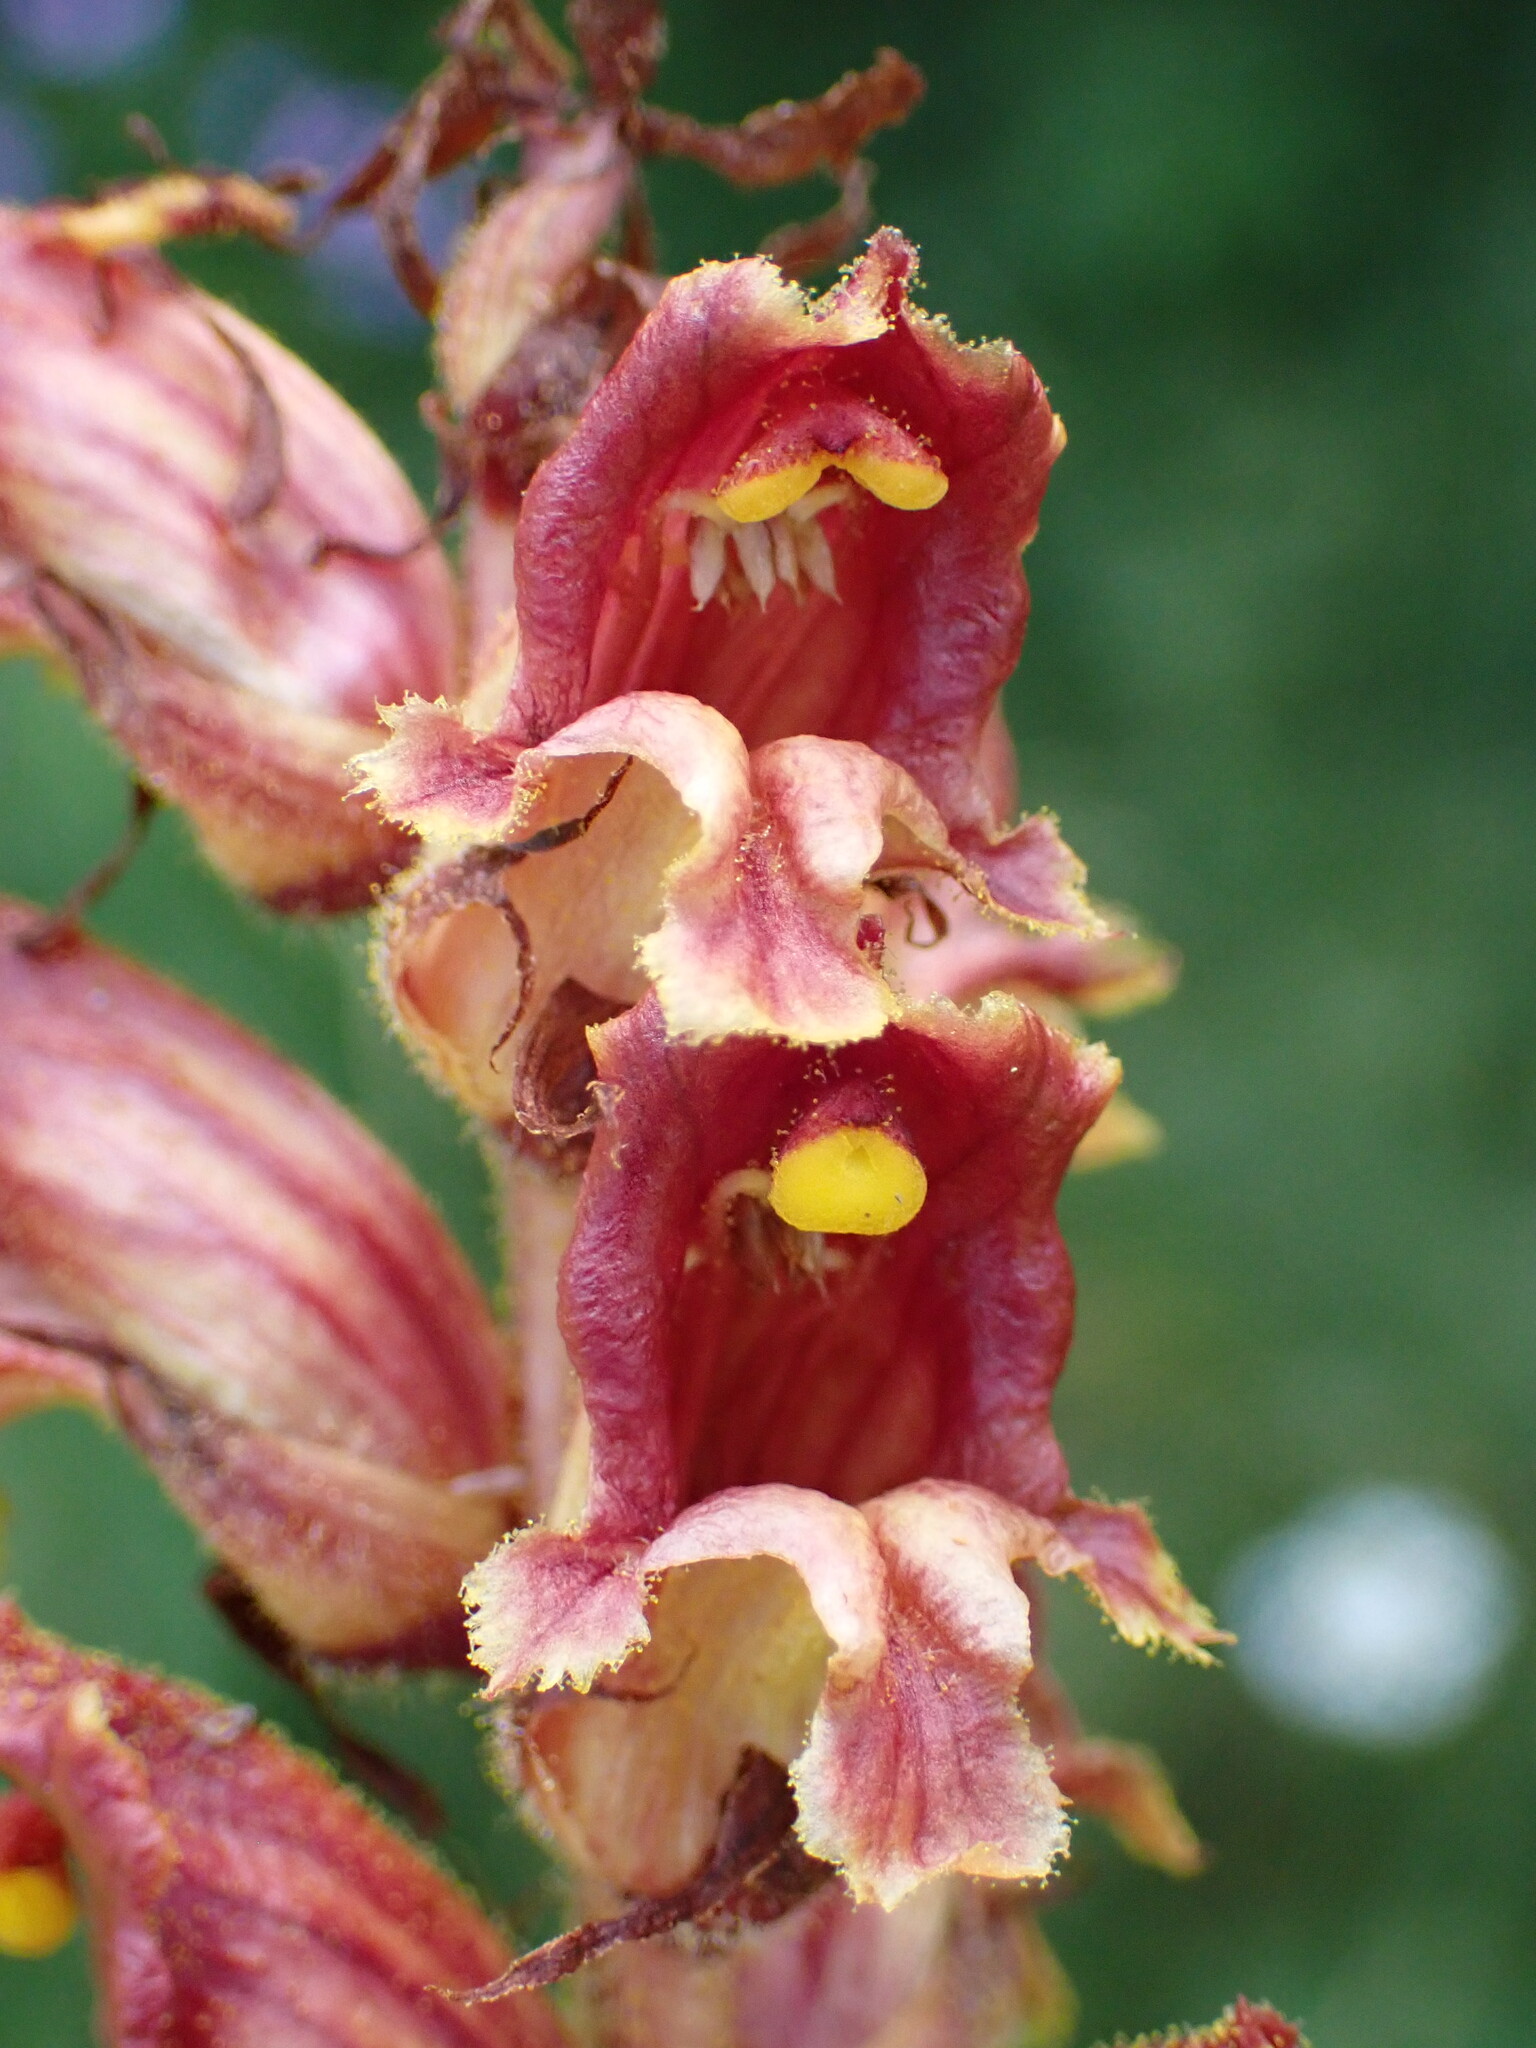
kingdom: Plantae
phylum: Tracheophyta
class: Magnoliopsida
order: Lamiales
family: Orobanchaceae
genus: Orobanche
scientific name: Orobanche gracilis
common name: Slender broomrape
